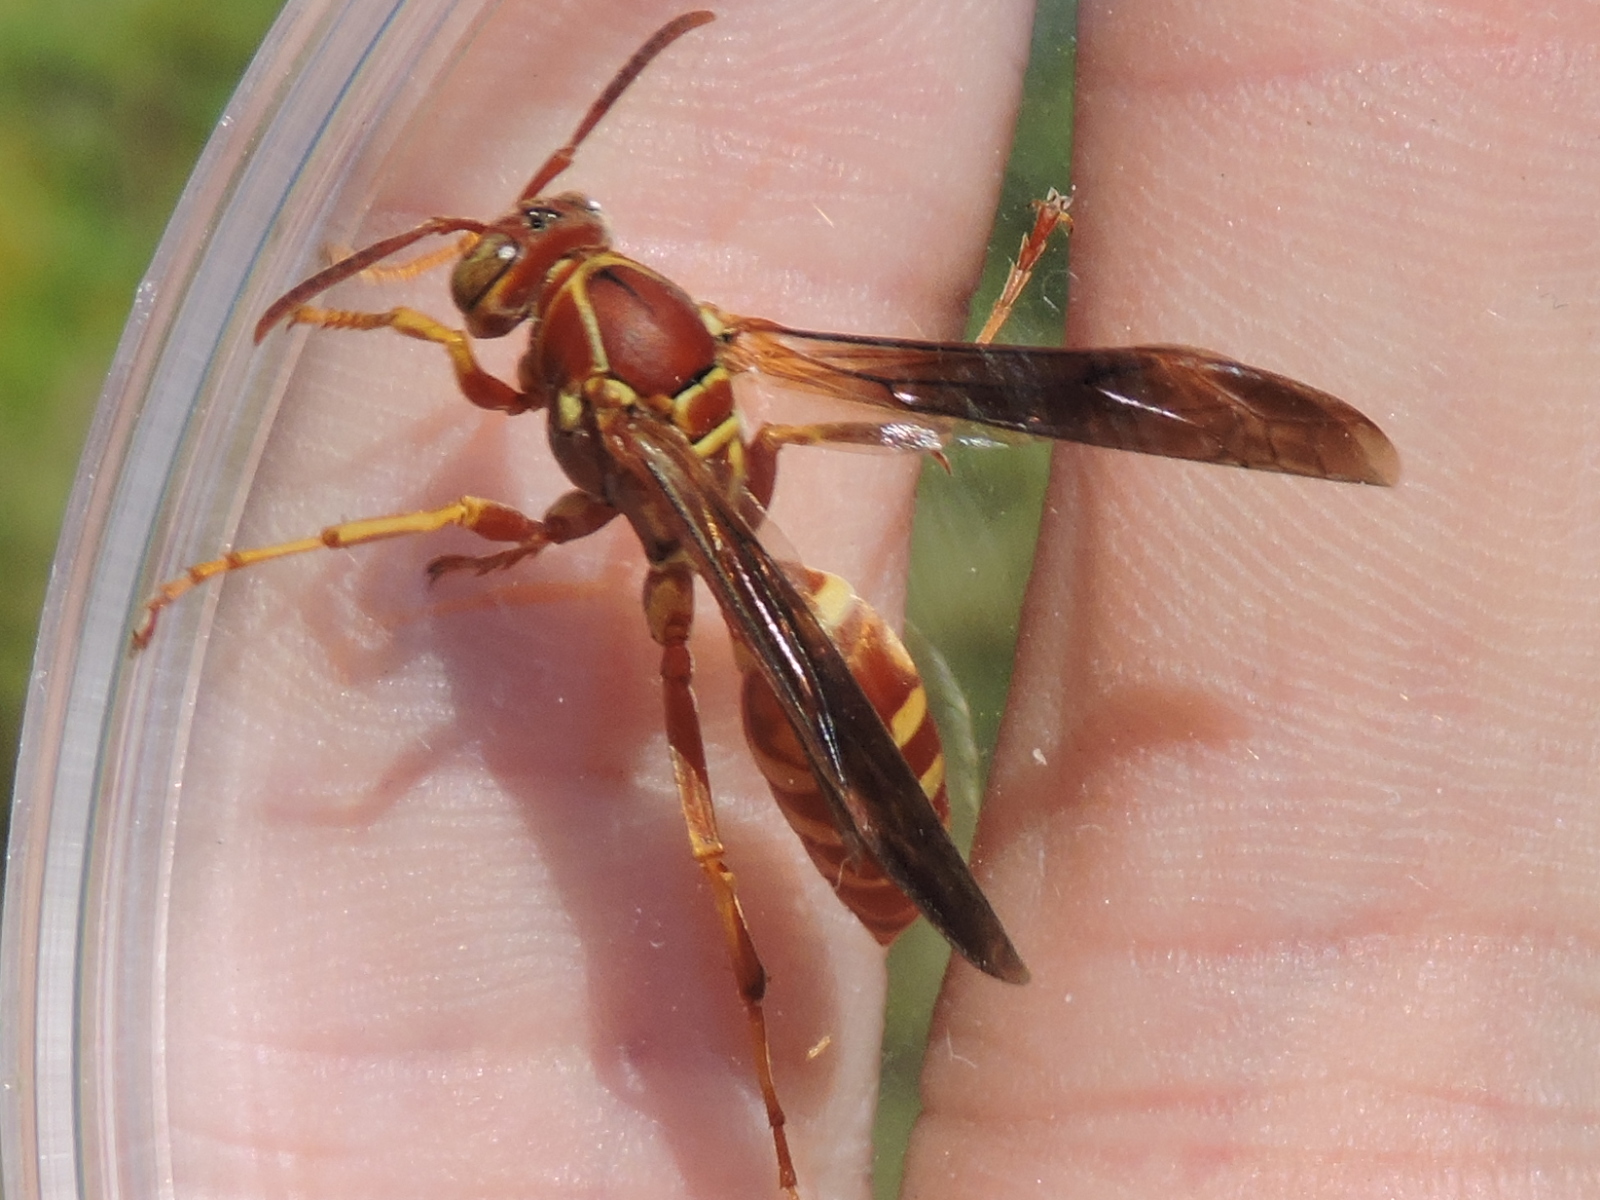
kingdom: Animalia
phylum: Arthropoda
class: Insecta
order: Hymenoptera
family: Eumenidae
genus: Polistes
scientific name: Polistes bellicosus
